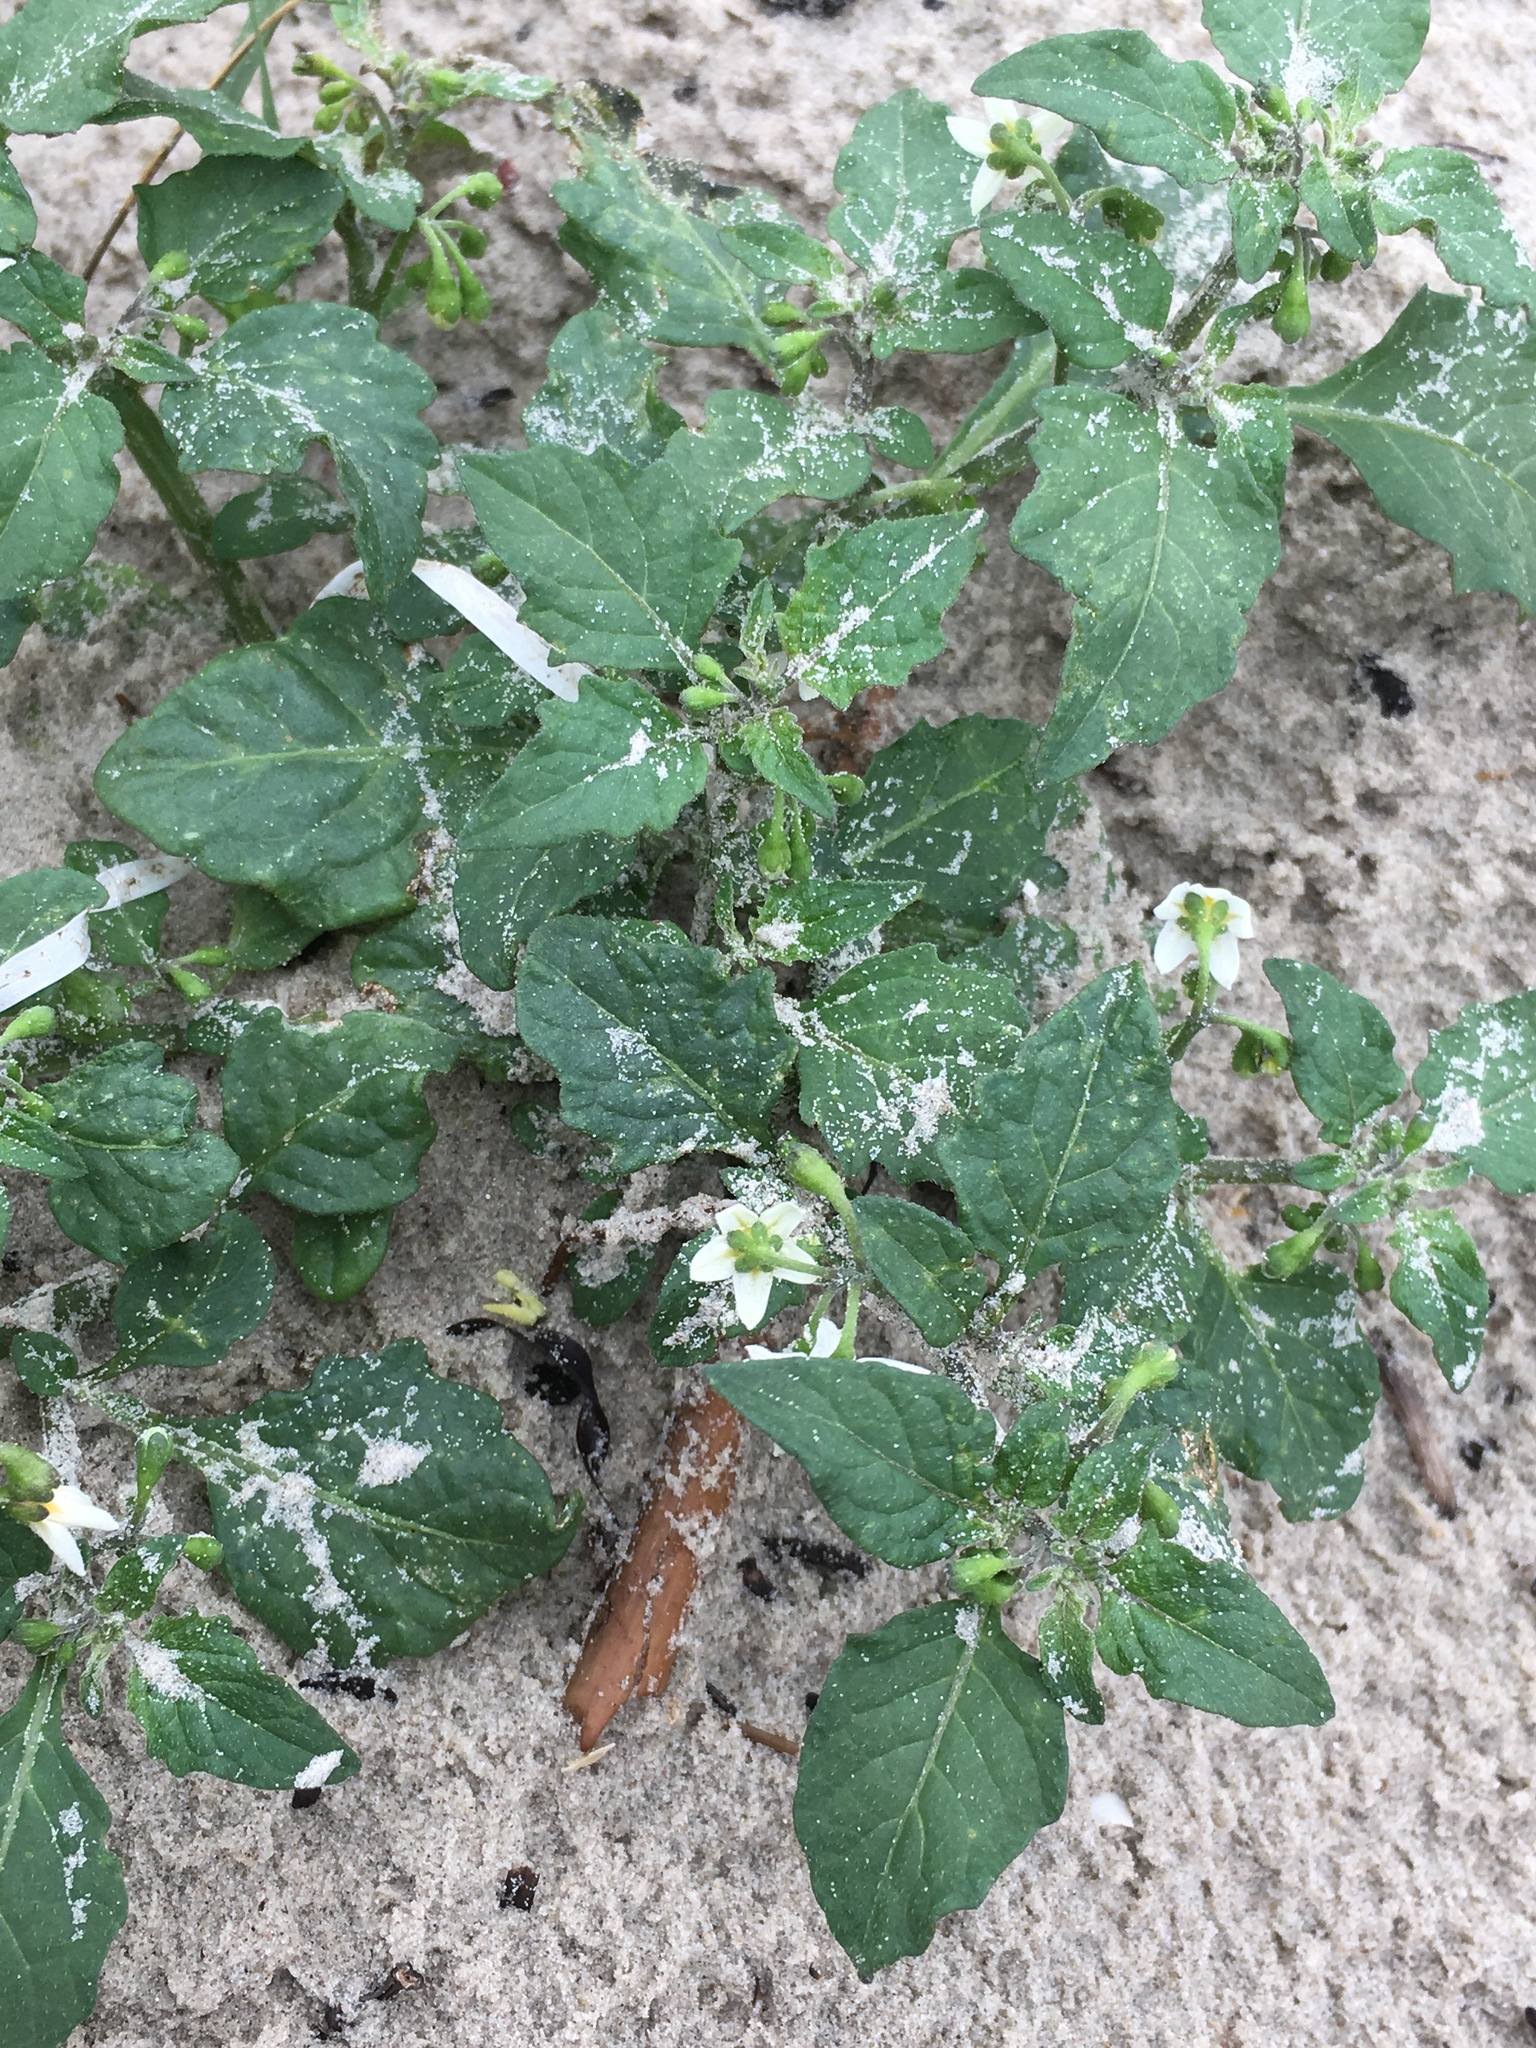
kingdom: Plantae
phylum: Tracheophyta
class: Magnoliopsida
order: Solanales
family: Solanaceae
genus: Solanum
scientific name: Solanum nigrum
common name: Black nightshade
